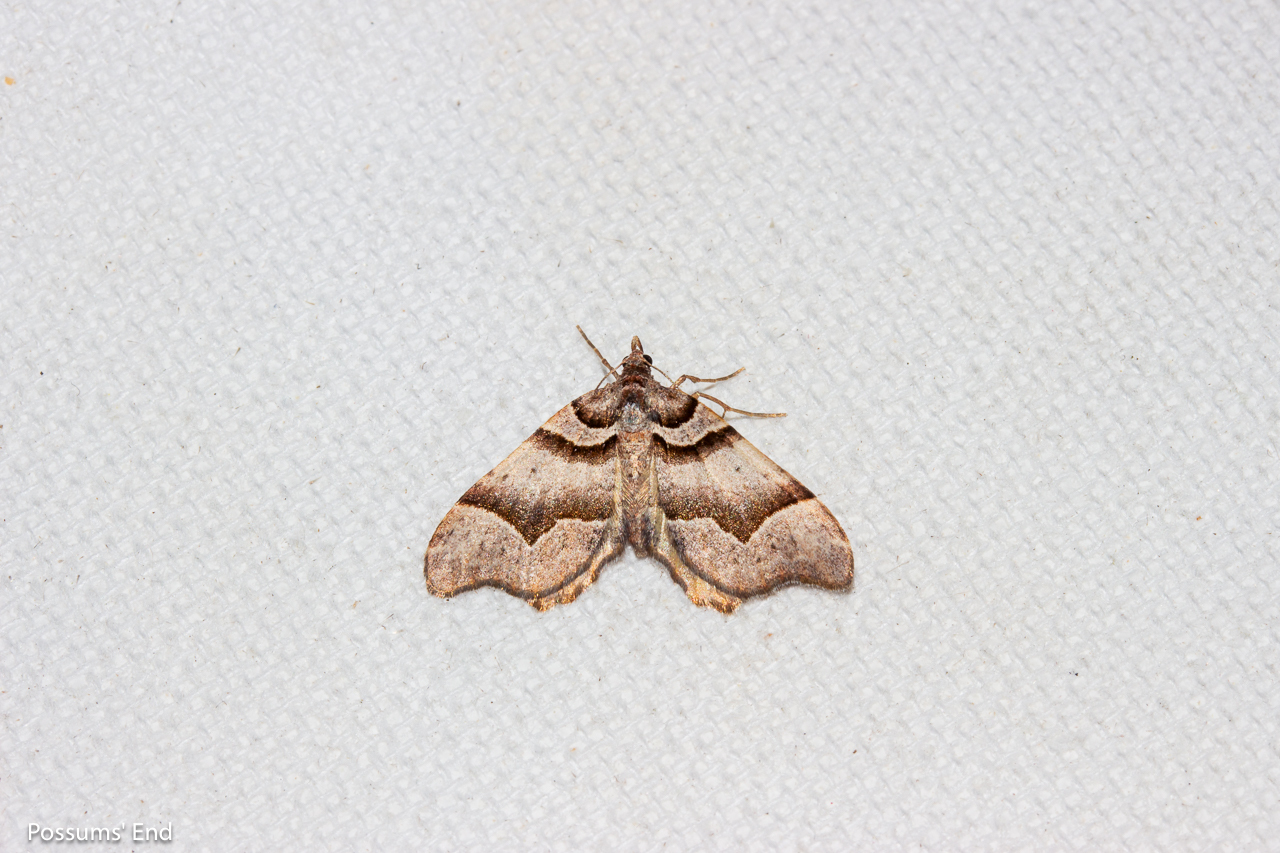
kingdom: Animalia
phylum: Arthropoda
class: Insecta
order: Lepidoptera
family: Geometridae
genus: Helastia
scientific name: Helastia triphragma
